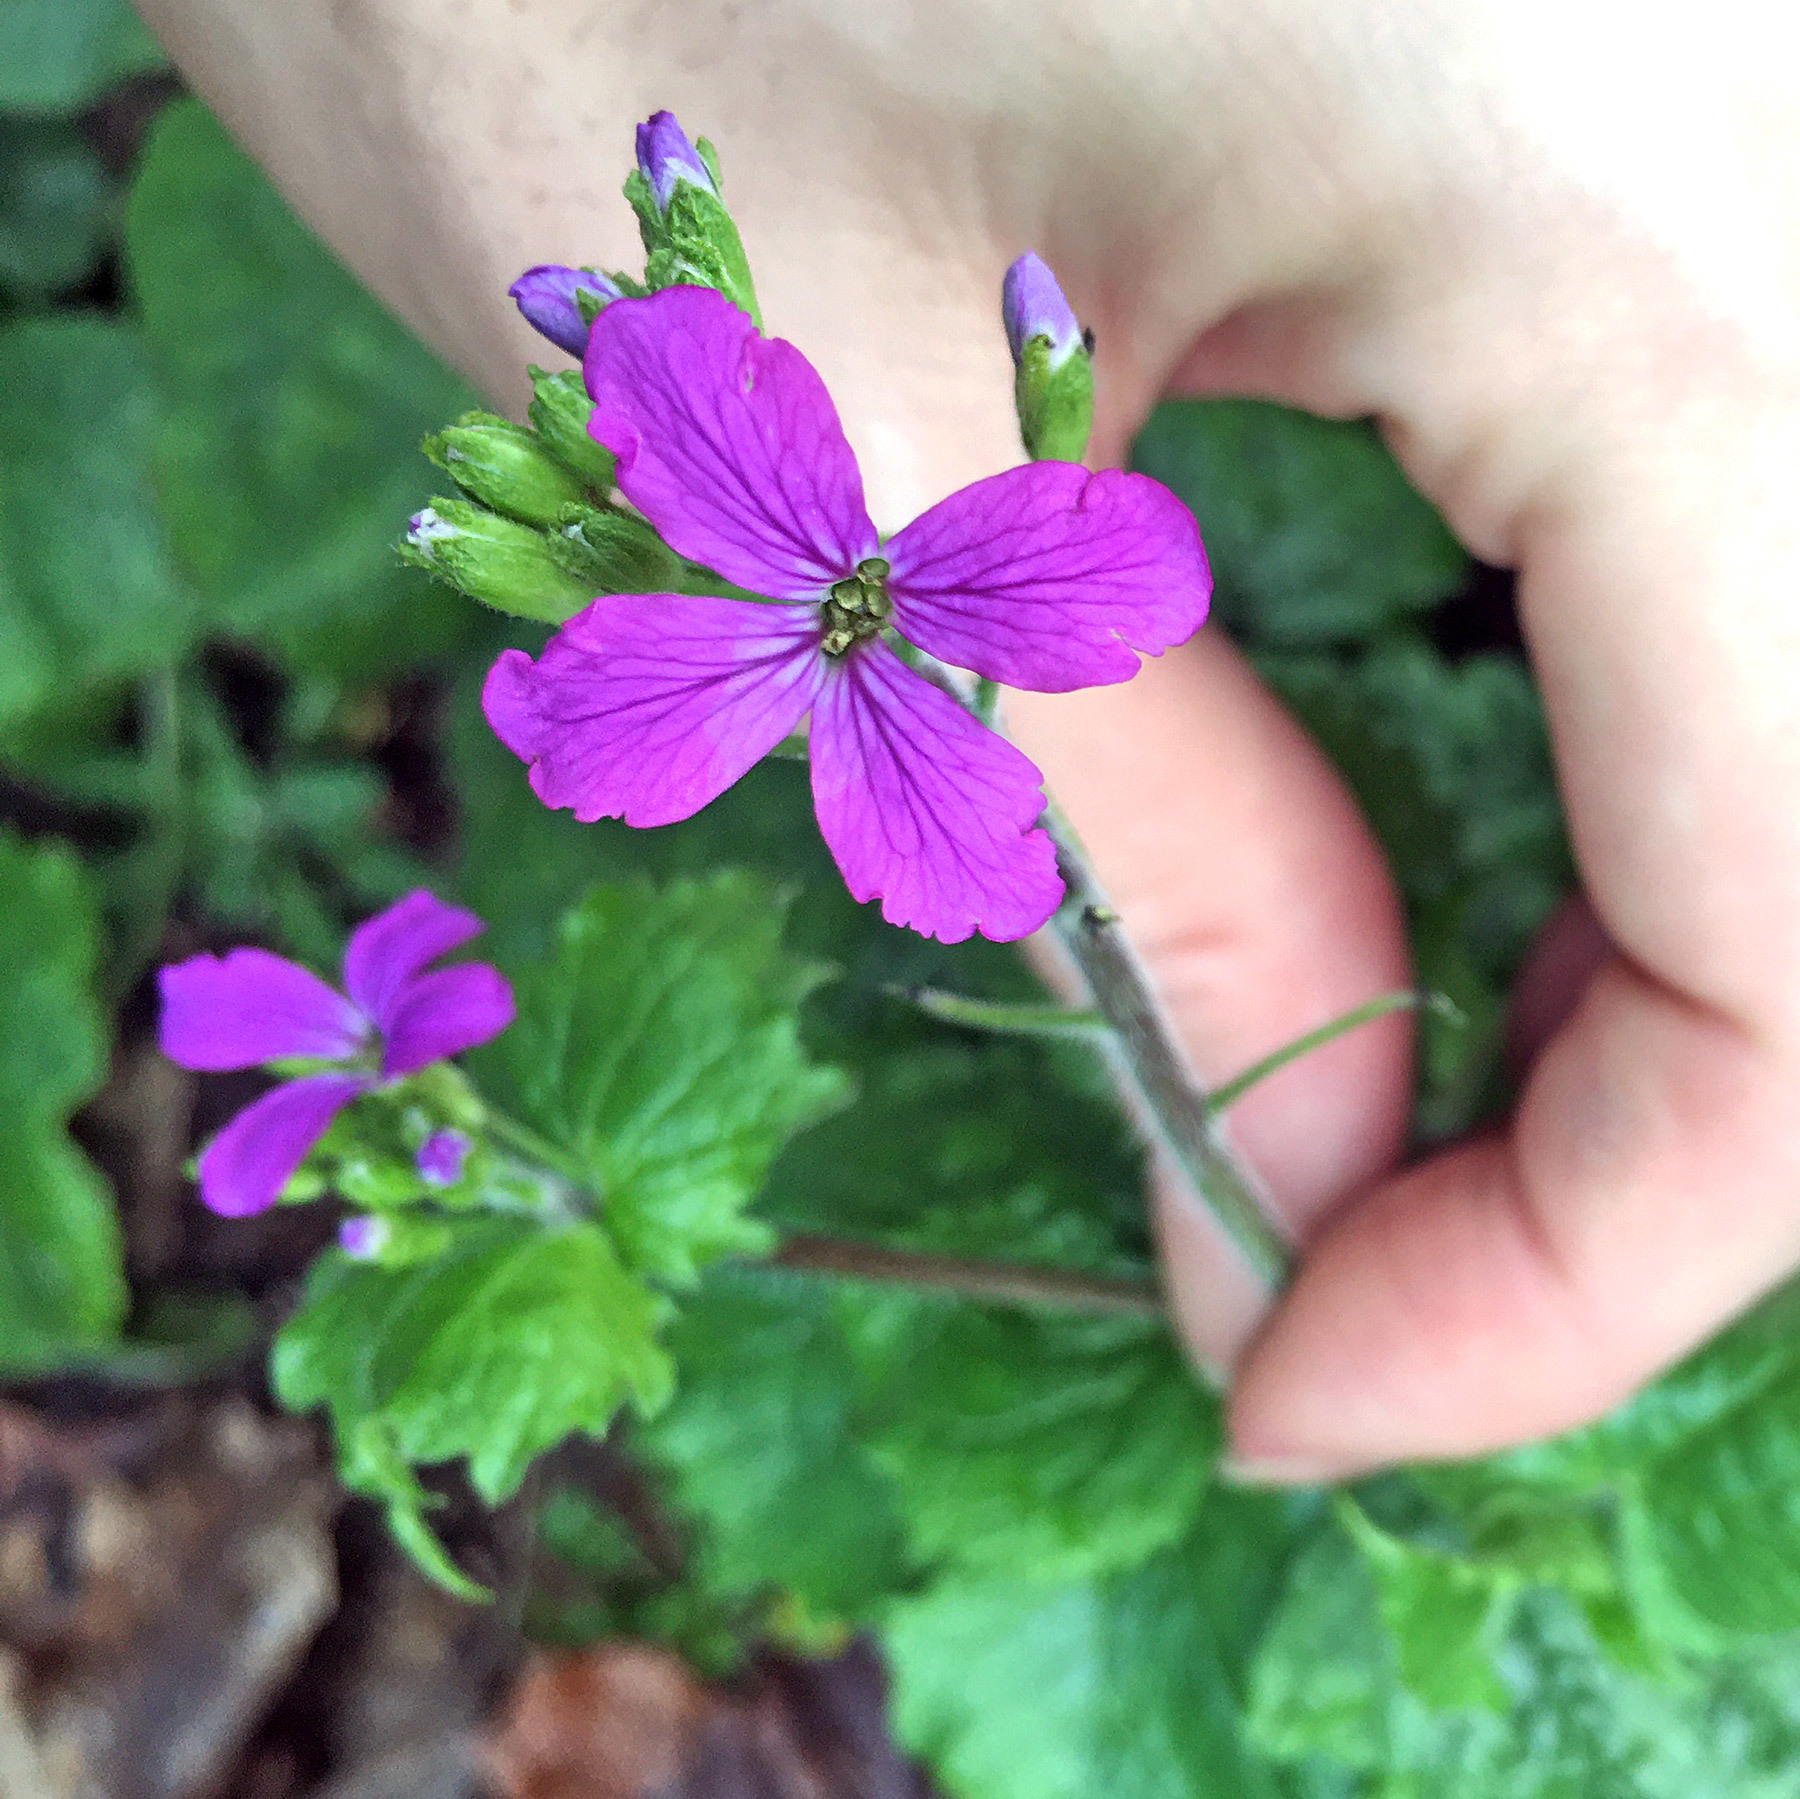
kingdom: Plantae
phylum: Tracheophyta
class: Magnoliopsida
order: Brassicales
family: Brassicaceae
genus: Lunaria
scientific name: Lunaria annua
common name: Honesty
